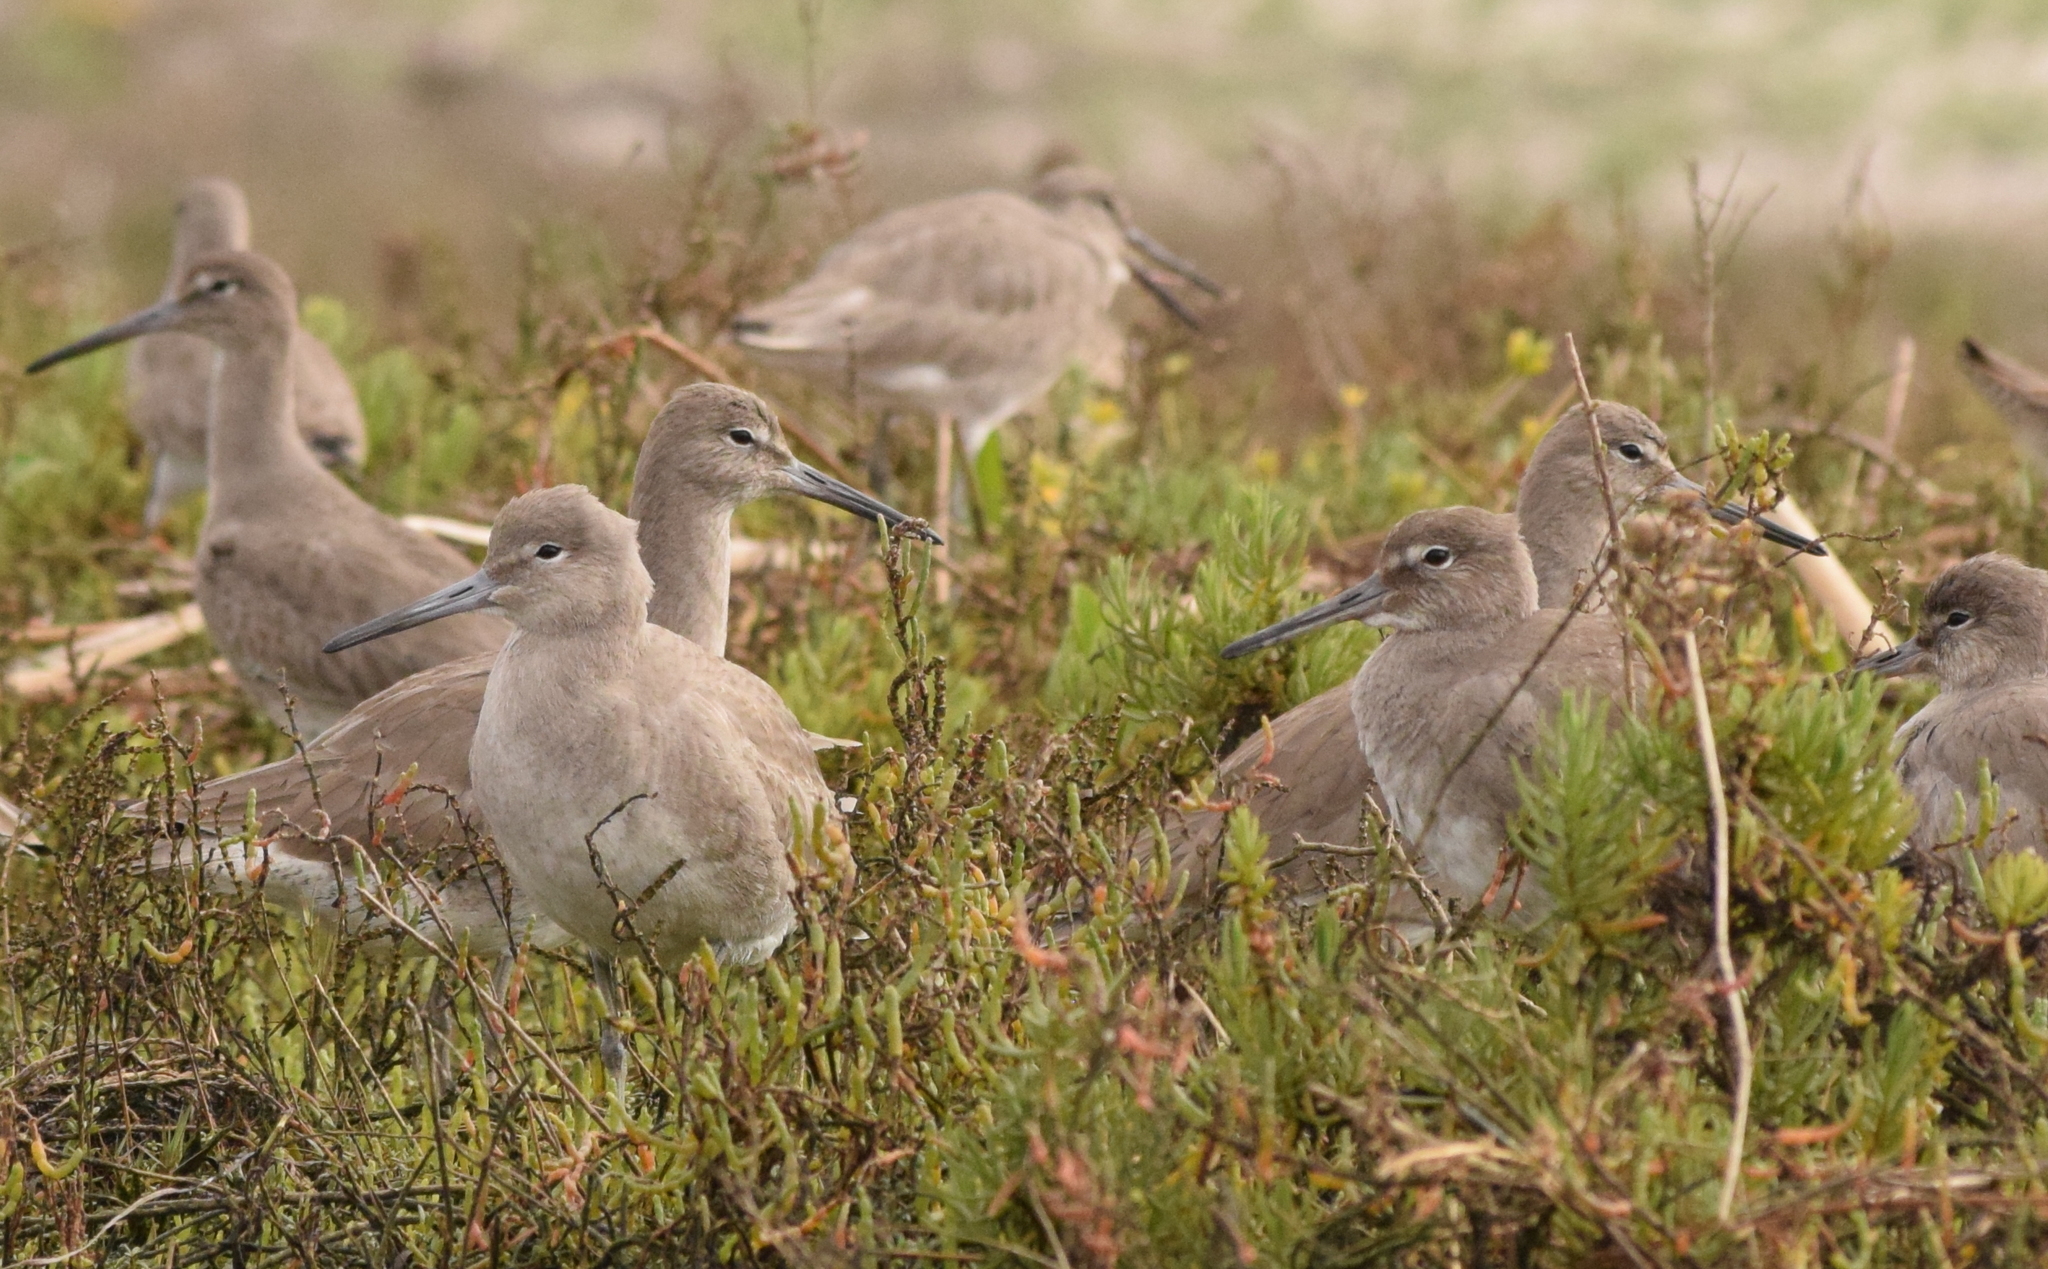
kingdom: Animalia
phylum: Chordata
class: Aves
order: Charadriiformes
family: Scolopacidae
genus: Tringa
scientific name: Tringa semipalmata
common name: Willet
